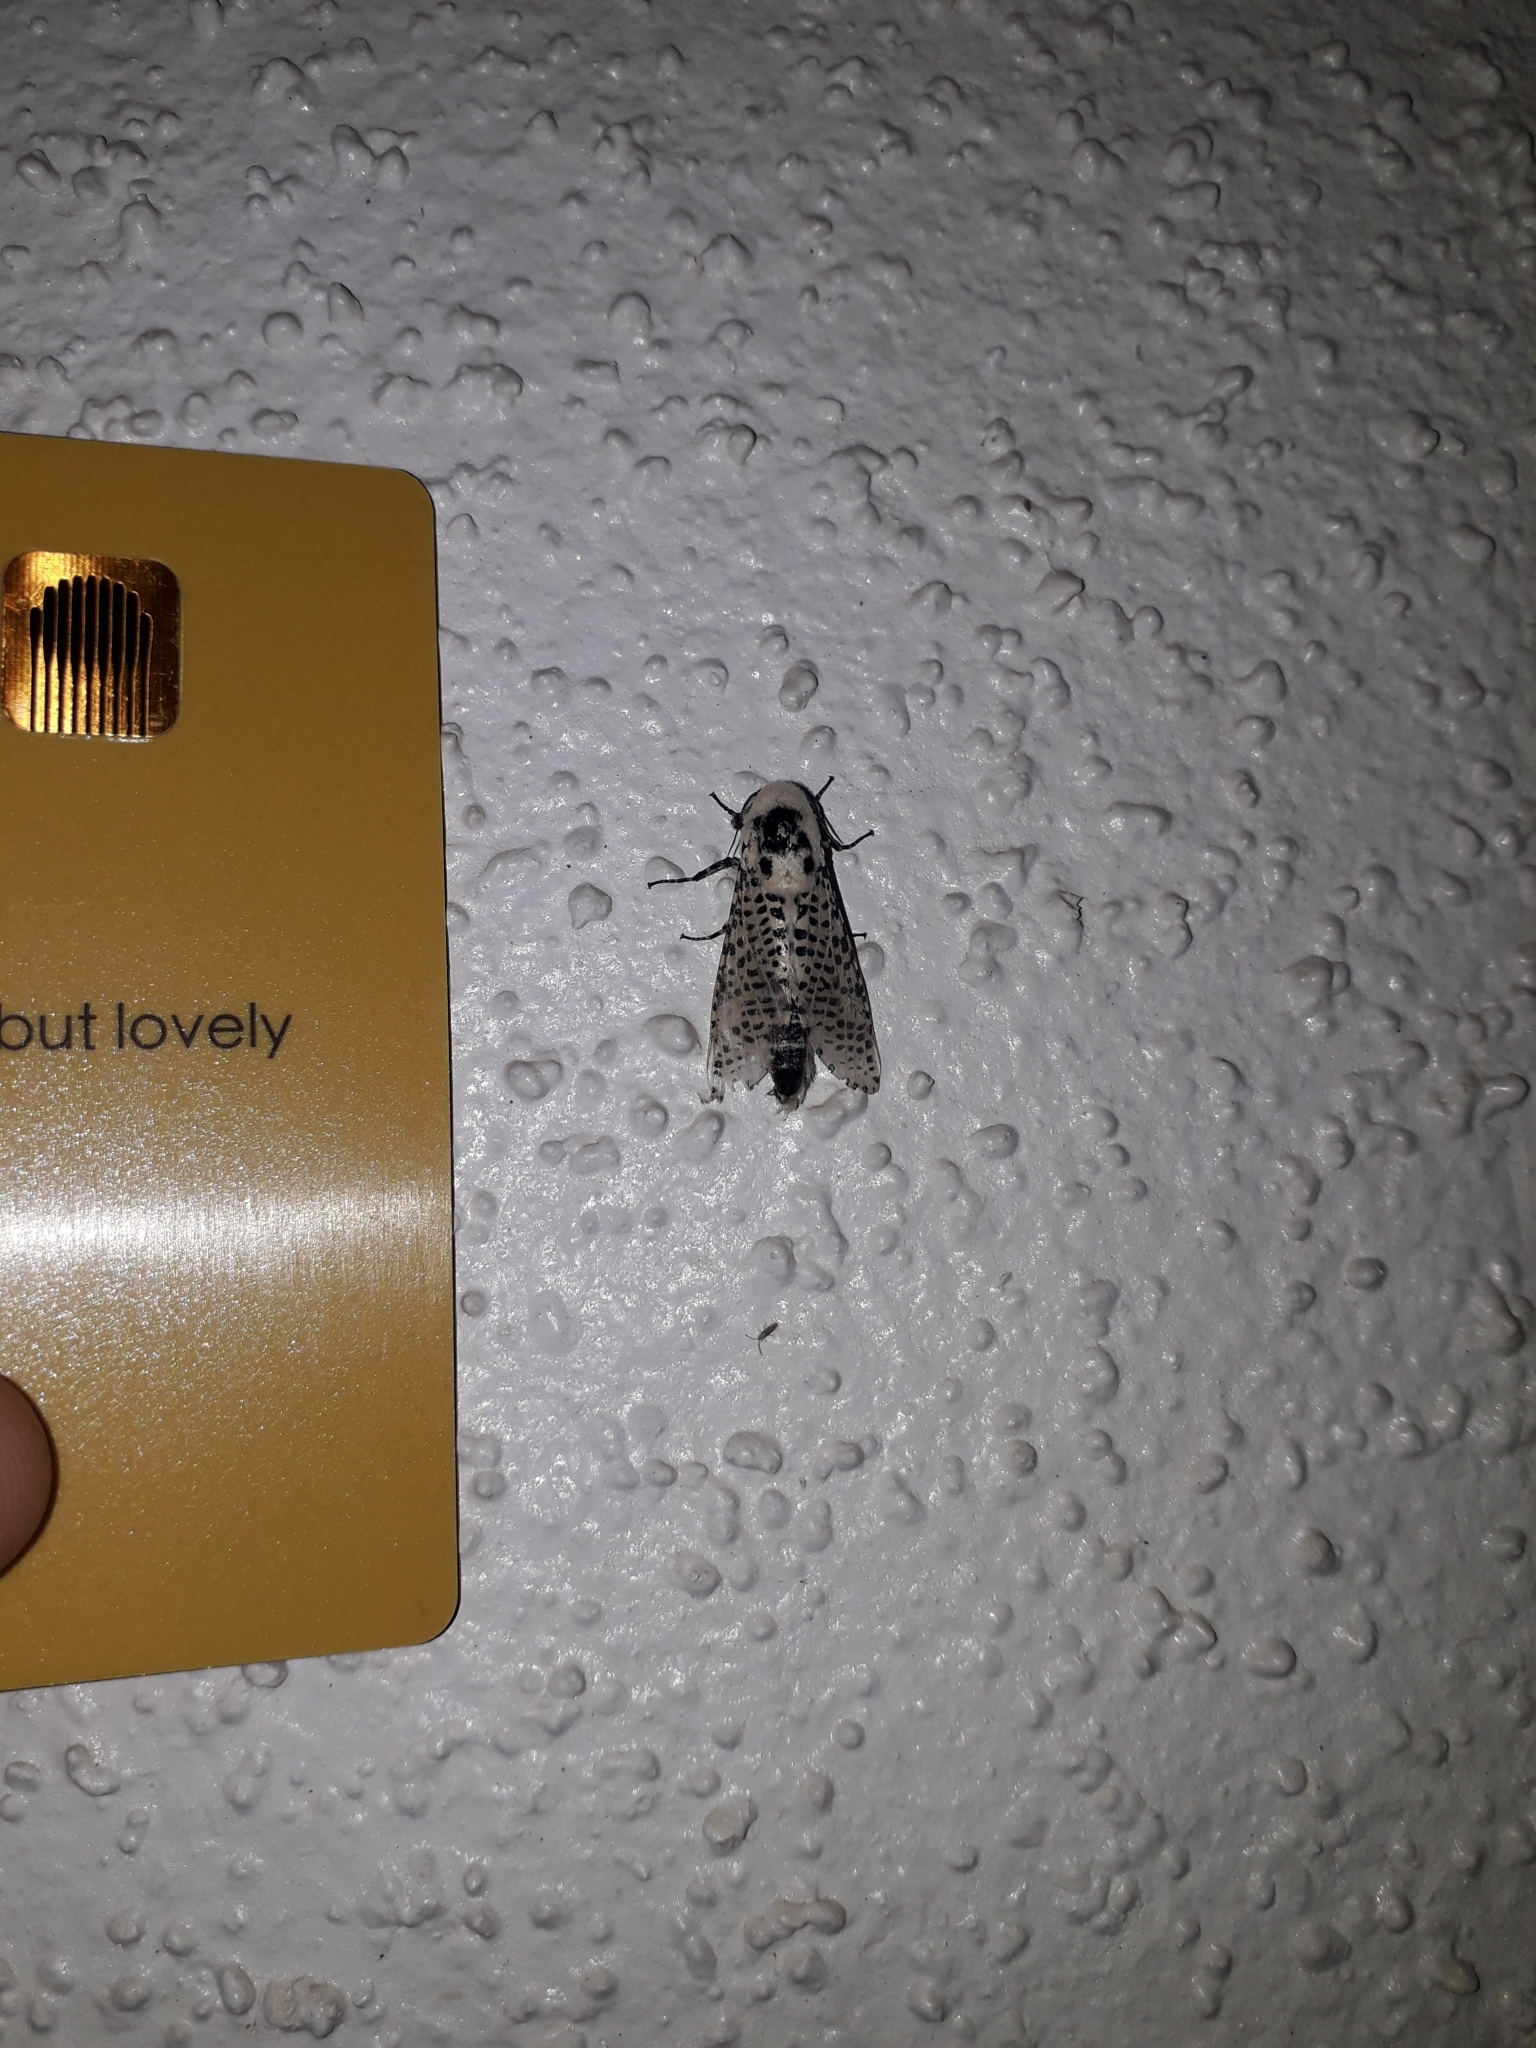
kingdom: Animalia
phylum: Arthropoda
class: Insecta
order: Lepidoptera
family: Cossidae
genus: Zeuzera
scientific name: Zeuzera pyrina
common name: Leopard moth
